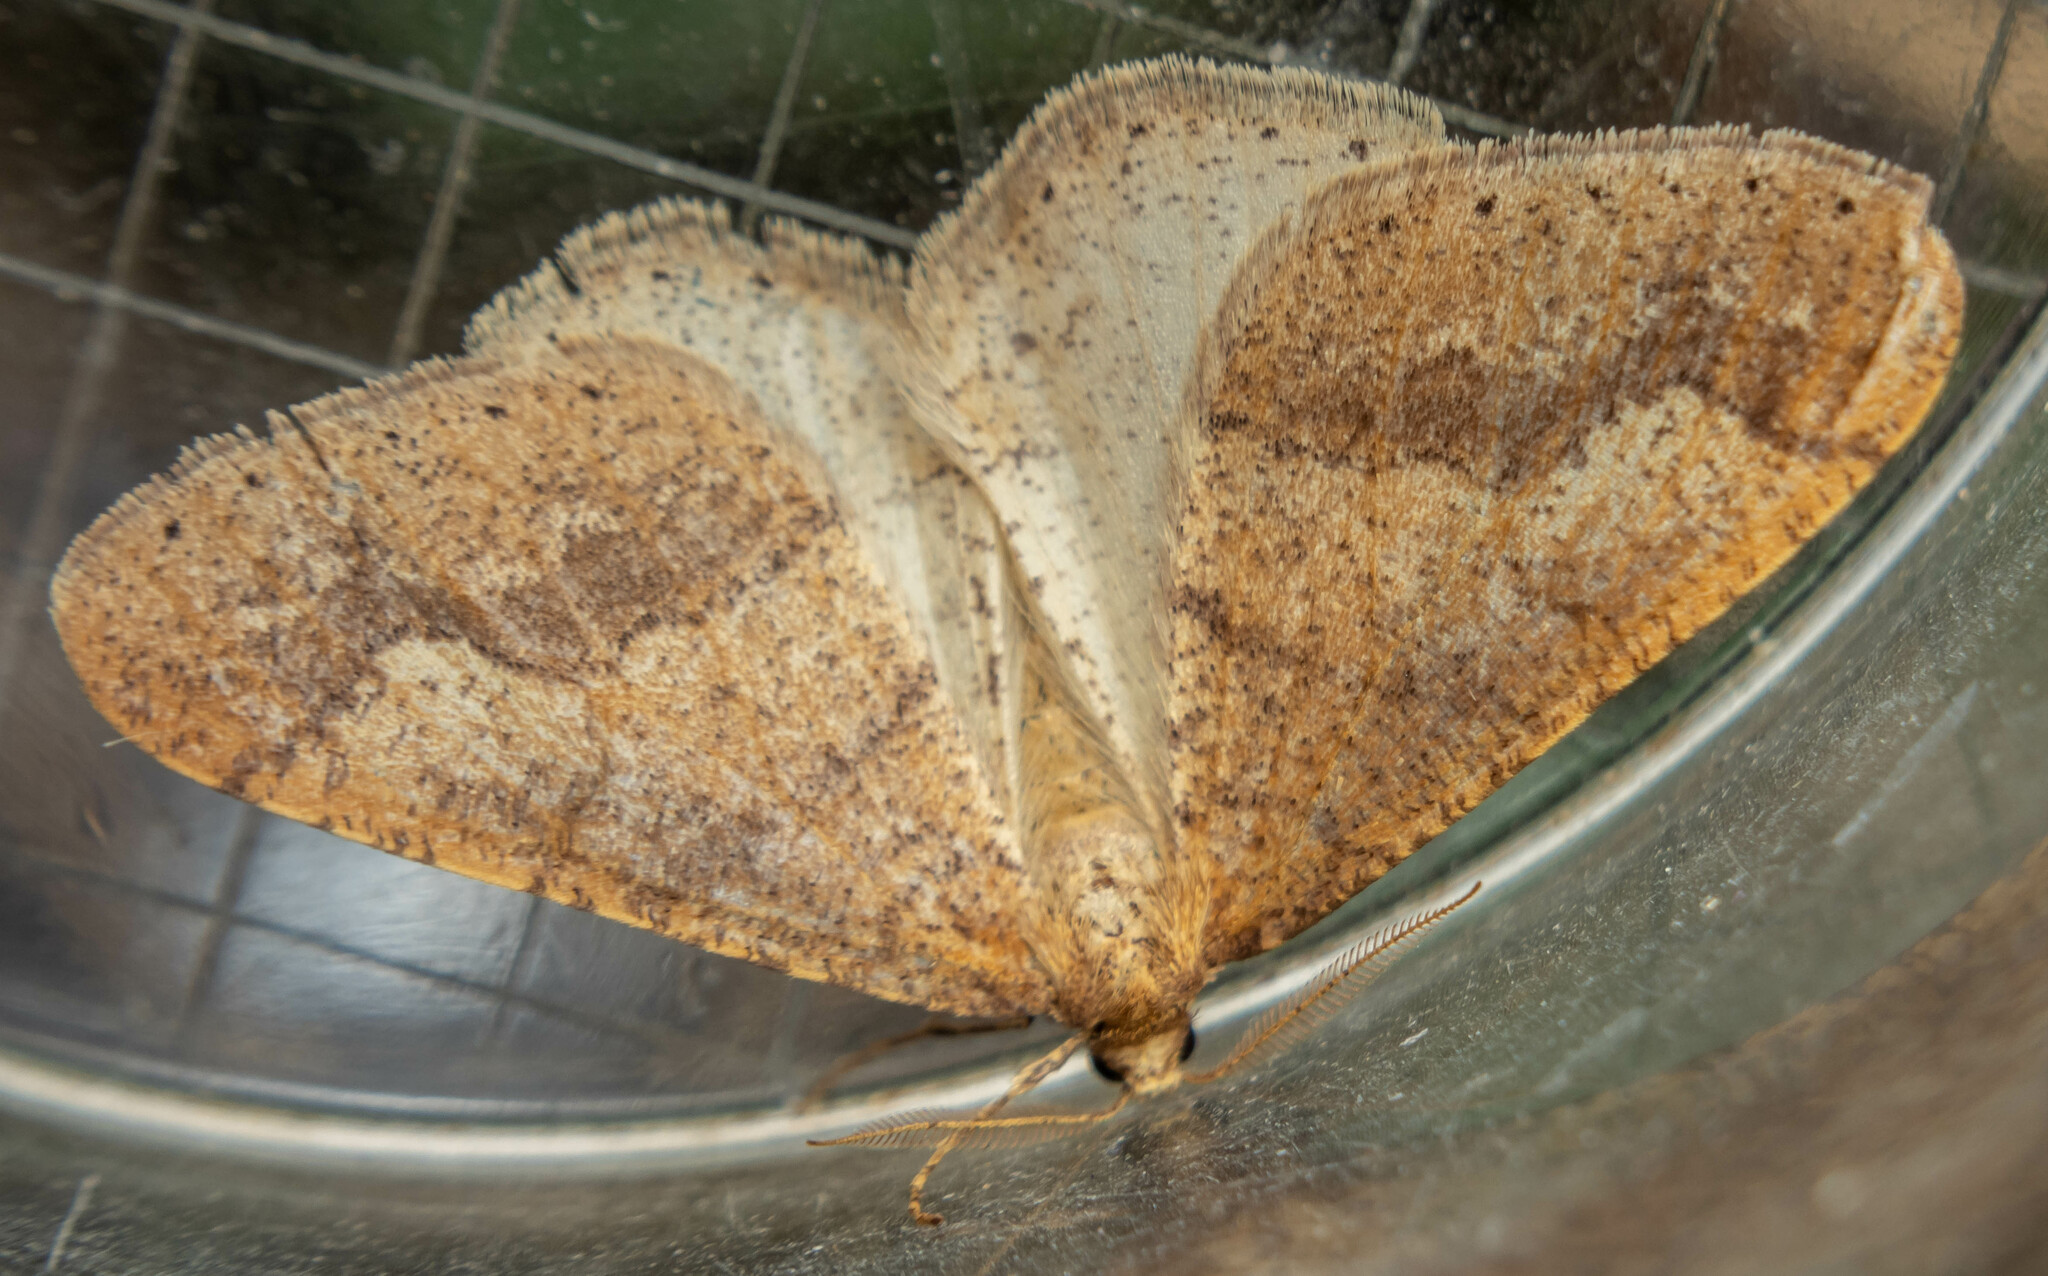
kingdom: Animalia
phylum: Arthropoda
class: Insecta
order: Lepidoptera
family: Geometridae
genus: Agriopis
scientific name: Agriopis marginaria
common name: Dotted border
